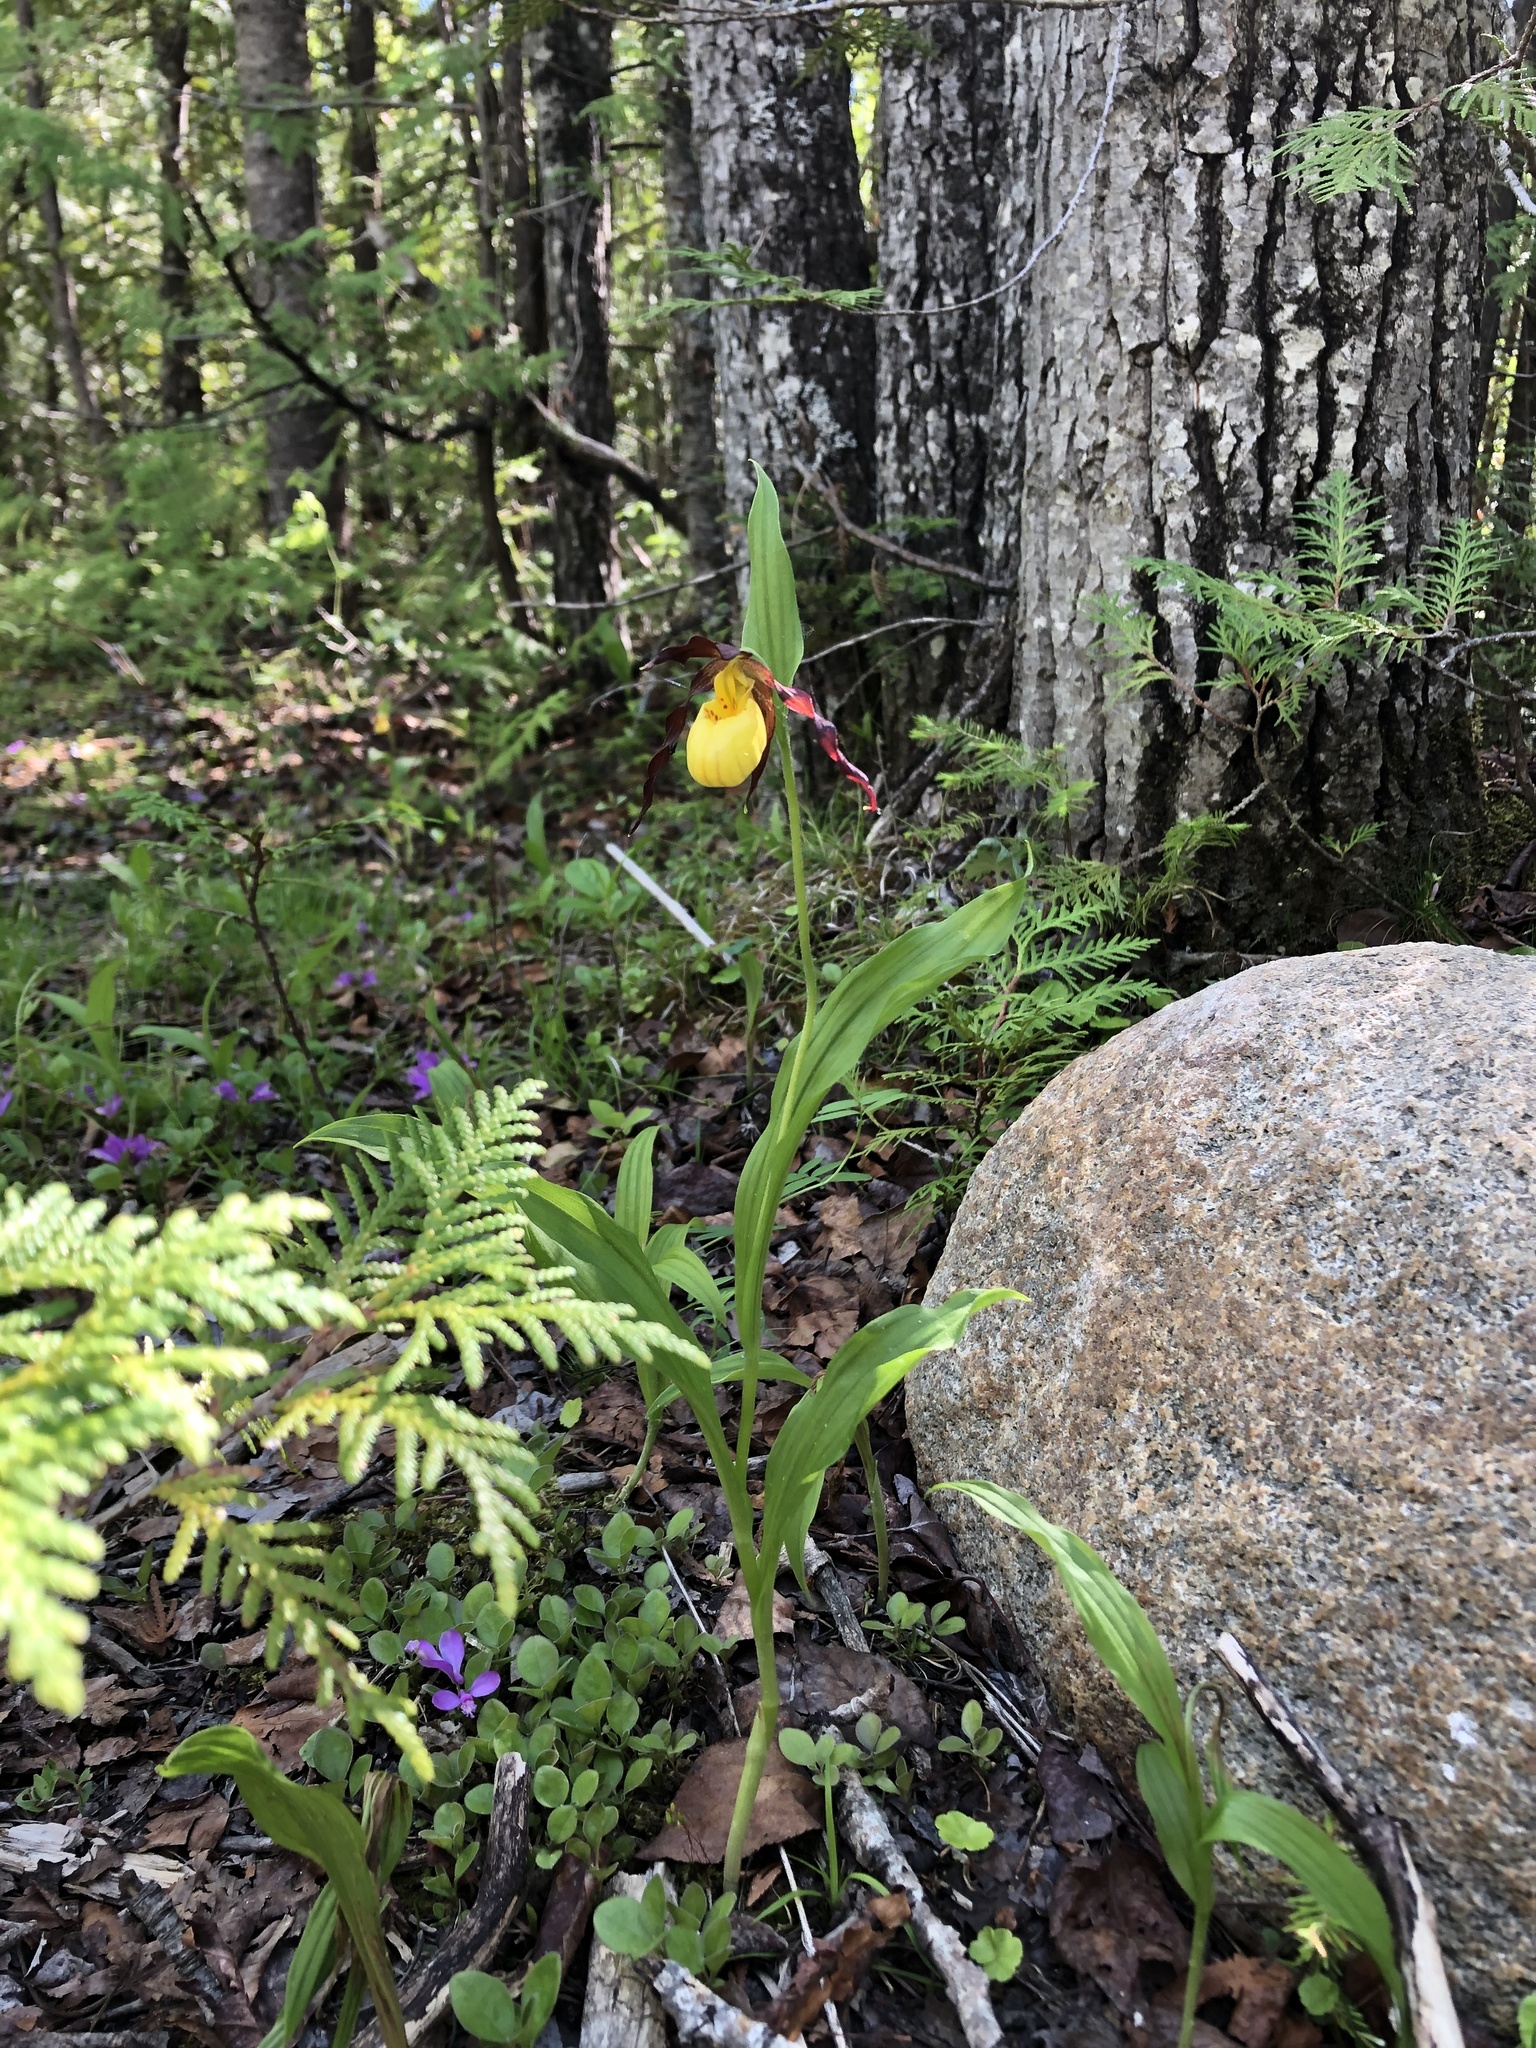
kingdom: Plantae
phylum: Tracheophyta
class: Liliopsida
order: Asparagales
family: Orchidaceae
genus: Cypripedium
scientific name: Cypripedium parviflorum
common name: American yellow lady's-slipper
